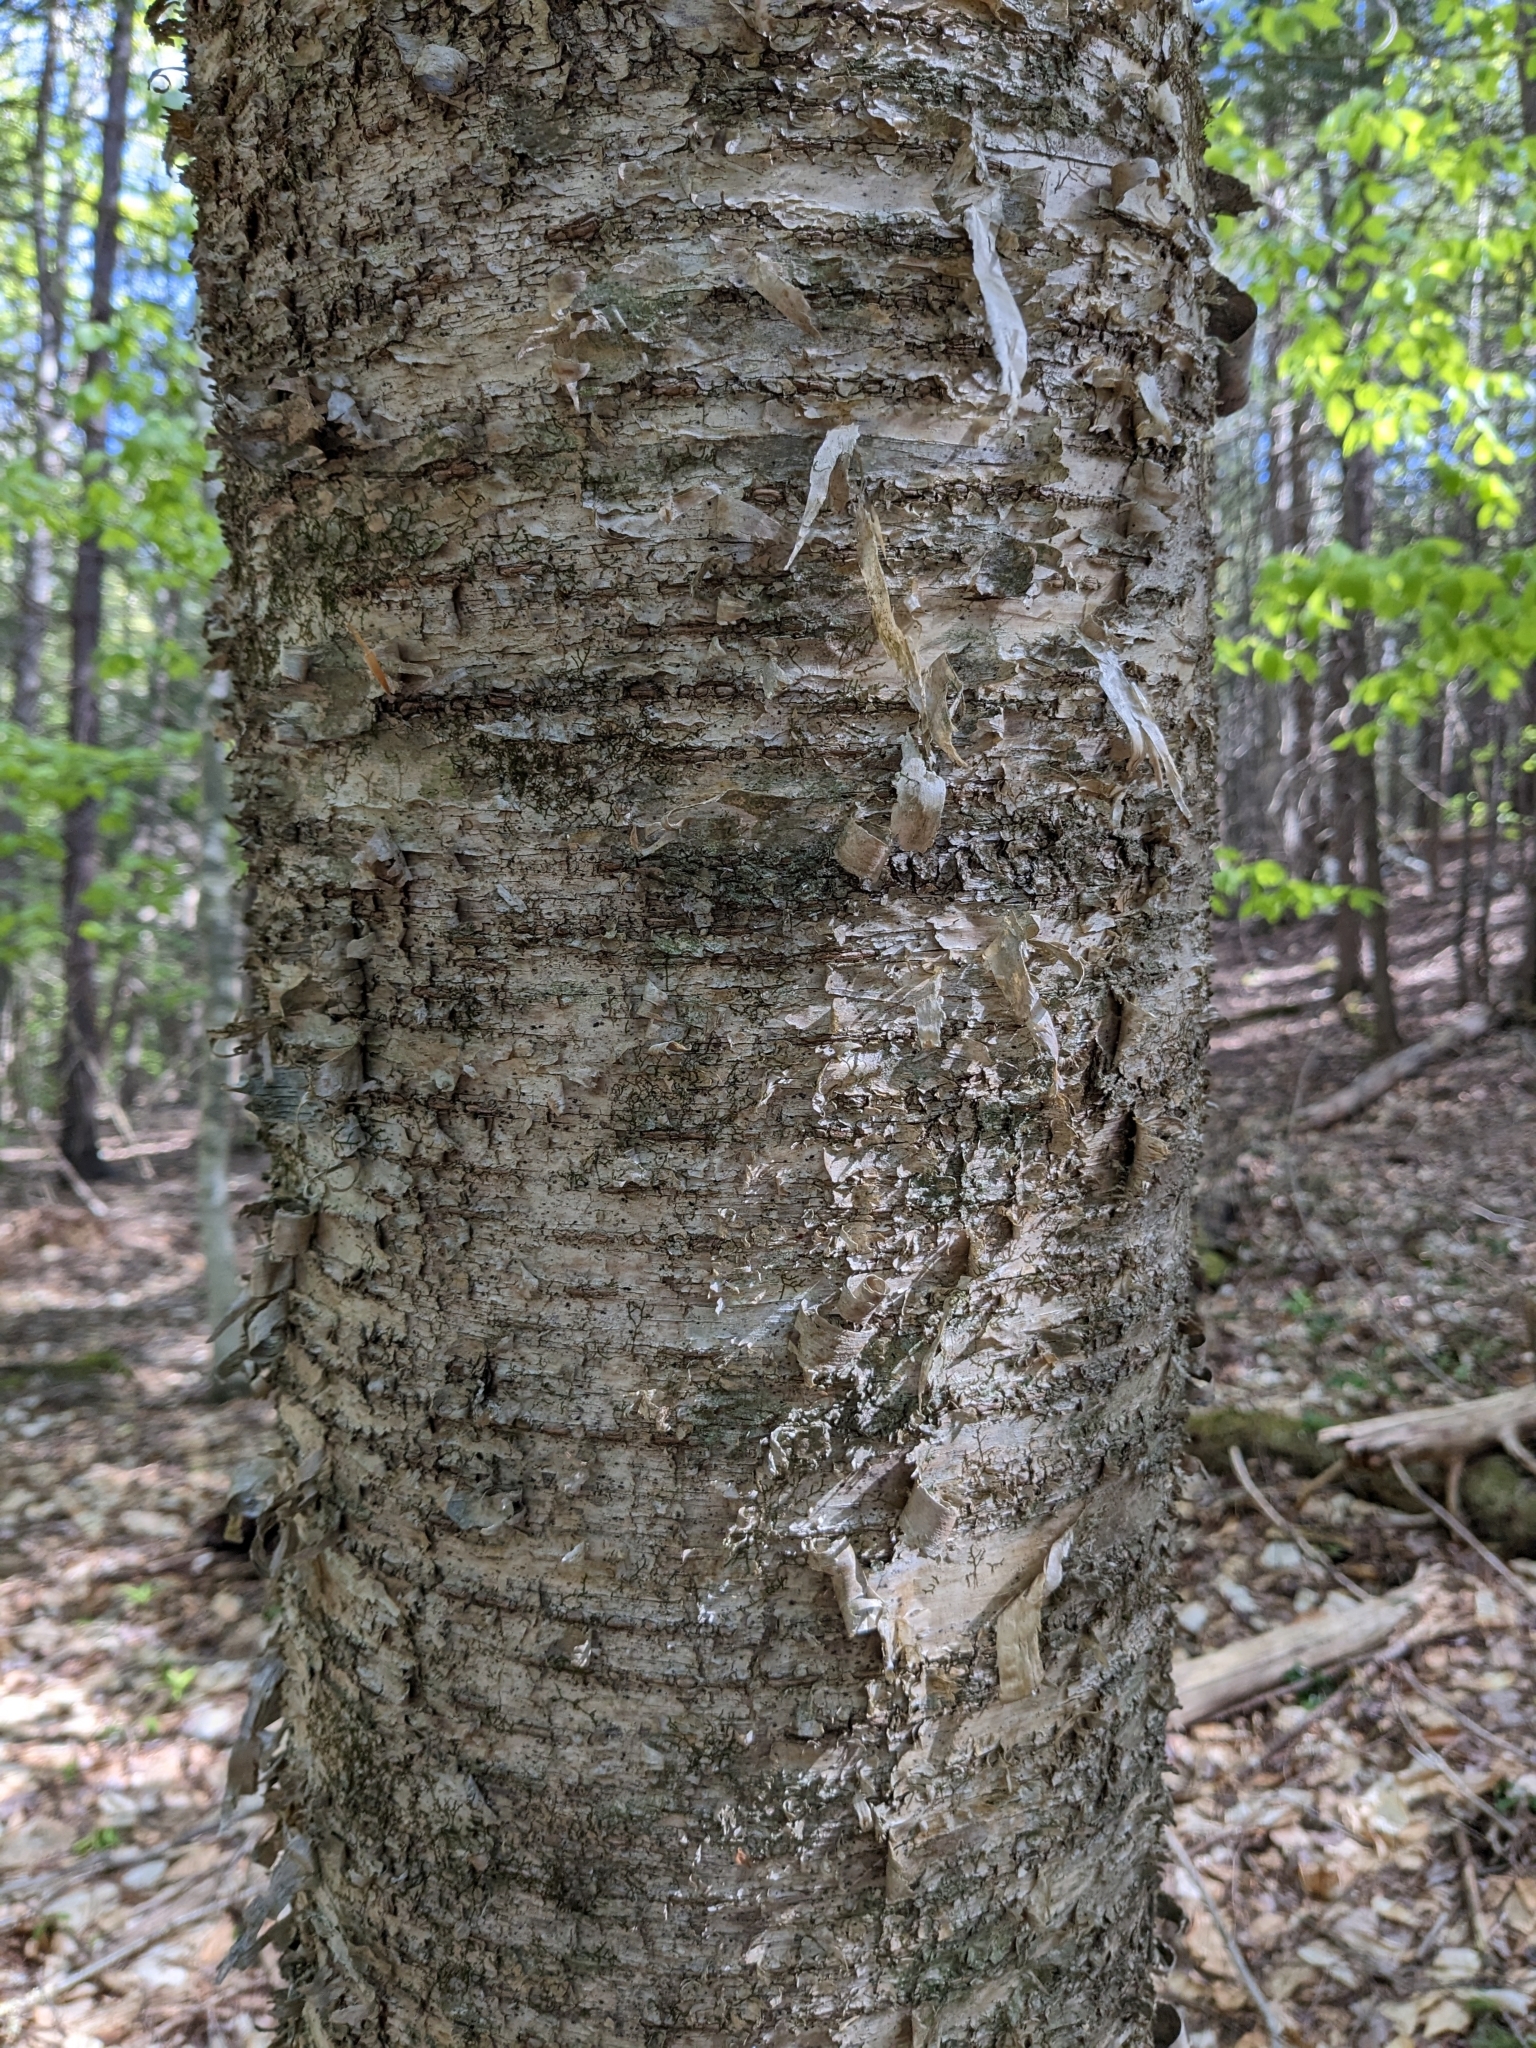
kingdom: Plantae
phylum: Tracheophyta
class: Magnoliopsida
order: Fagales
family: Betulaceae
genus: Betula
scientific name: Betula alleghaniensis
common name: Yellow birch
